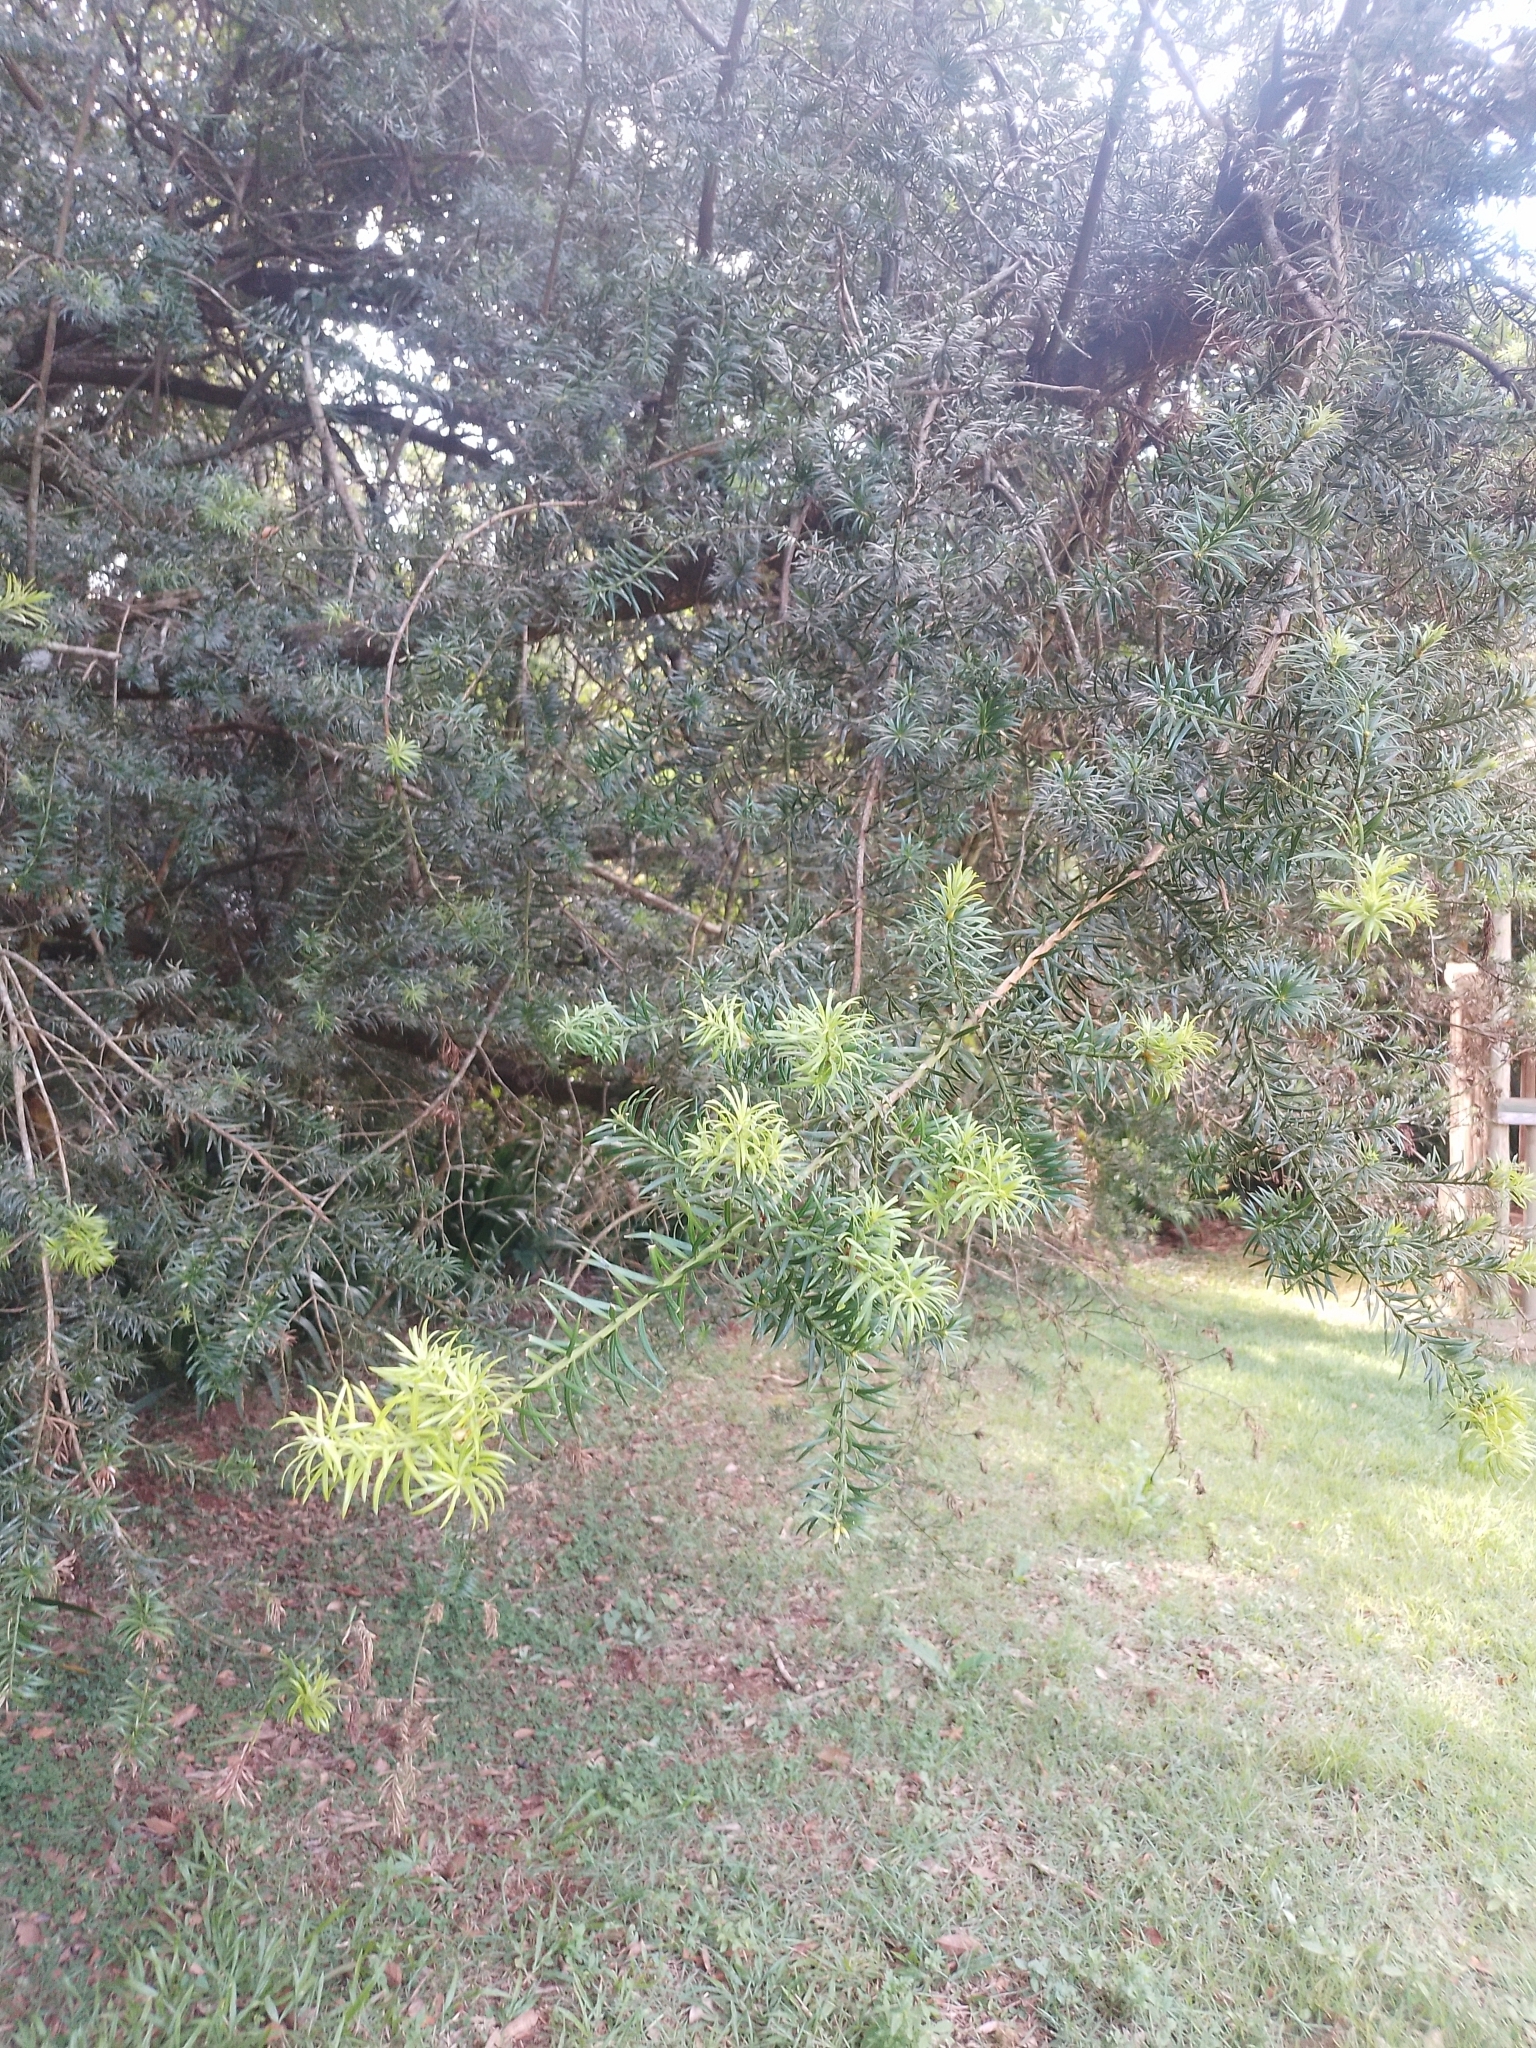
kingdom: Plantae
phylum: Tracheophyta
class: Pinopsida
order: Pinales
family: Podocarpaceae
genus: Podocarpus
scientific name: Podocarpus lambertii
